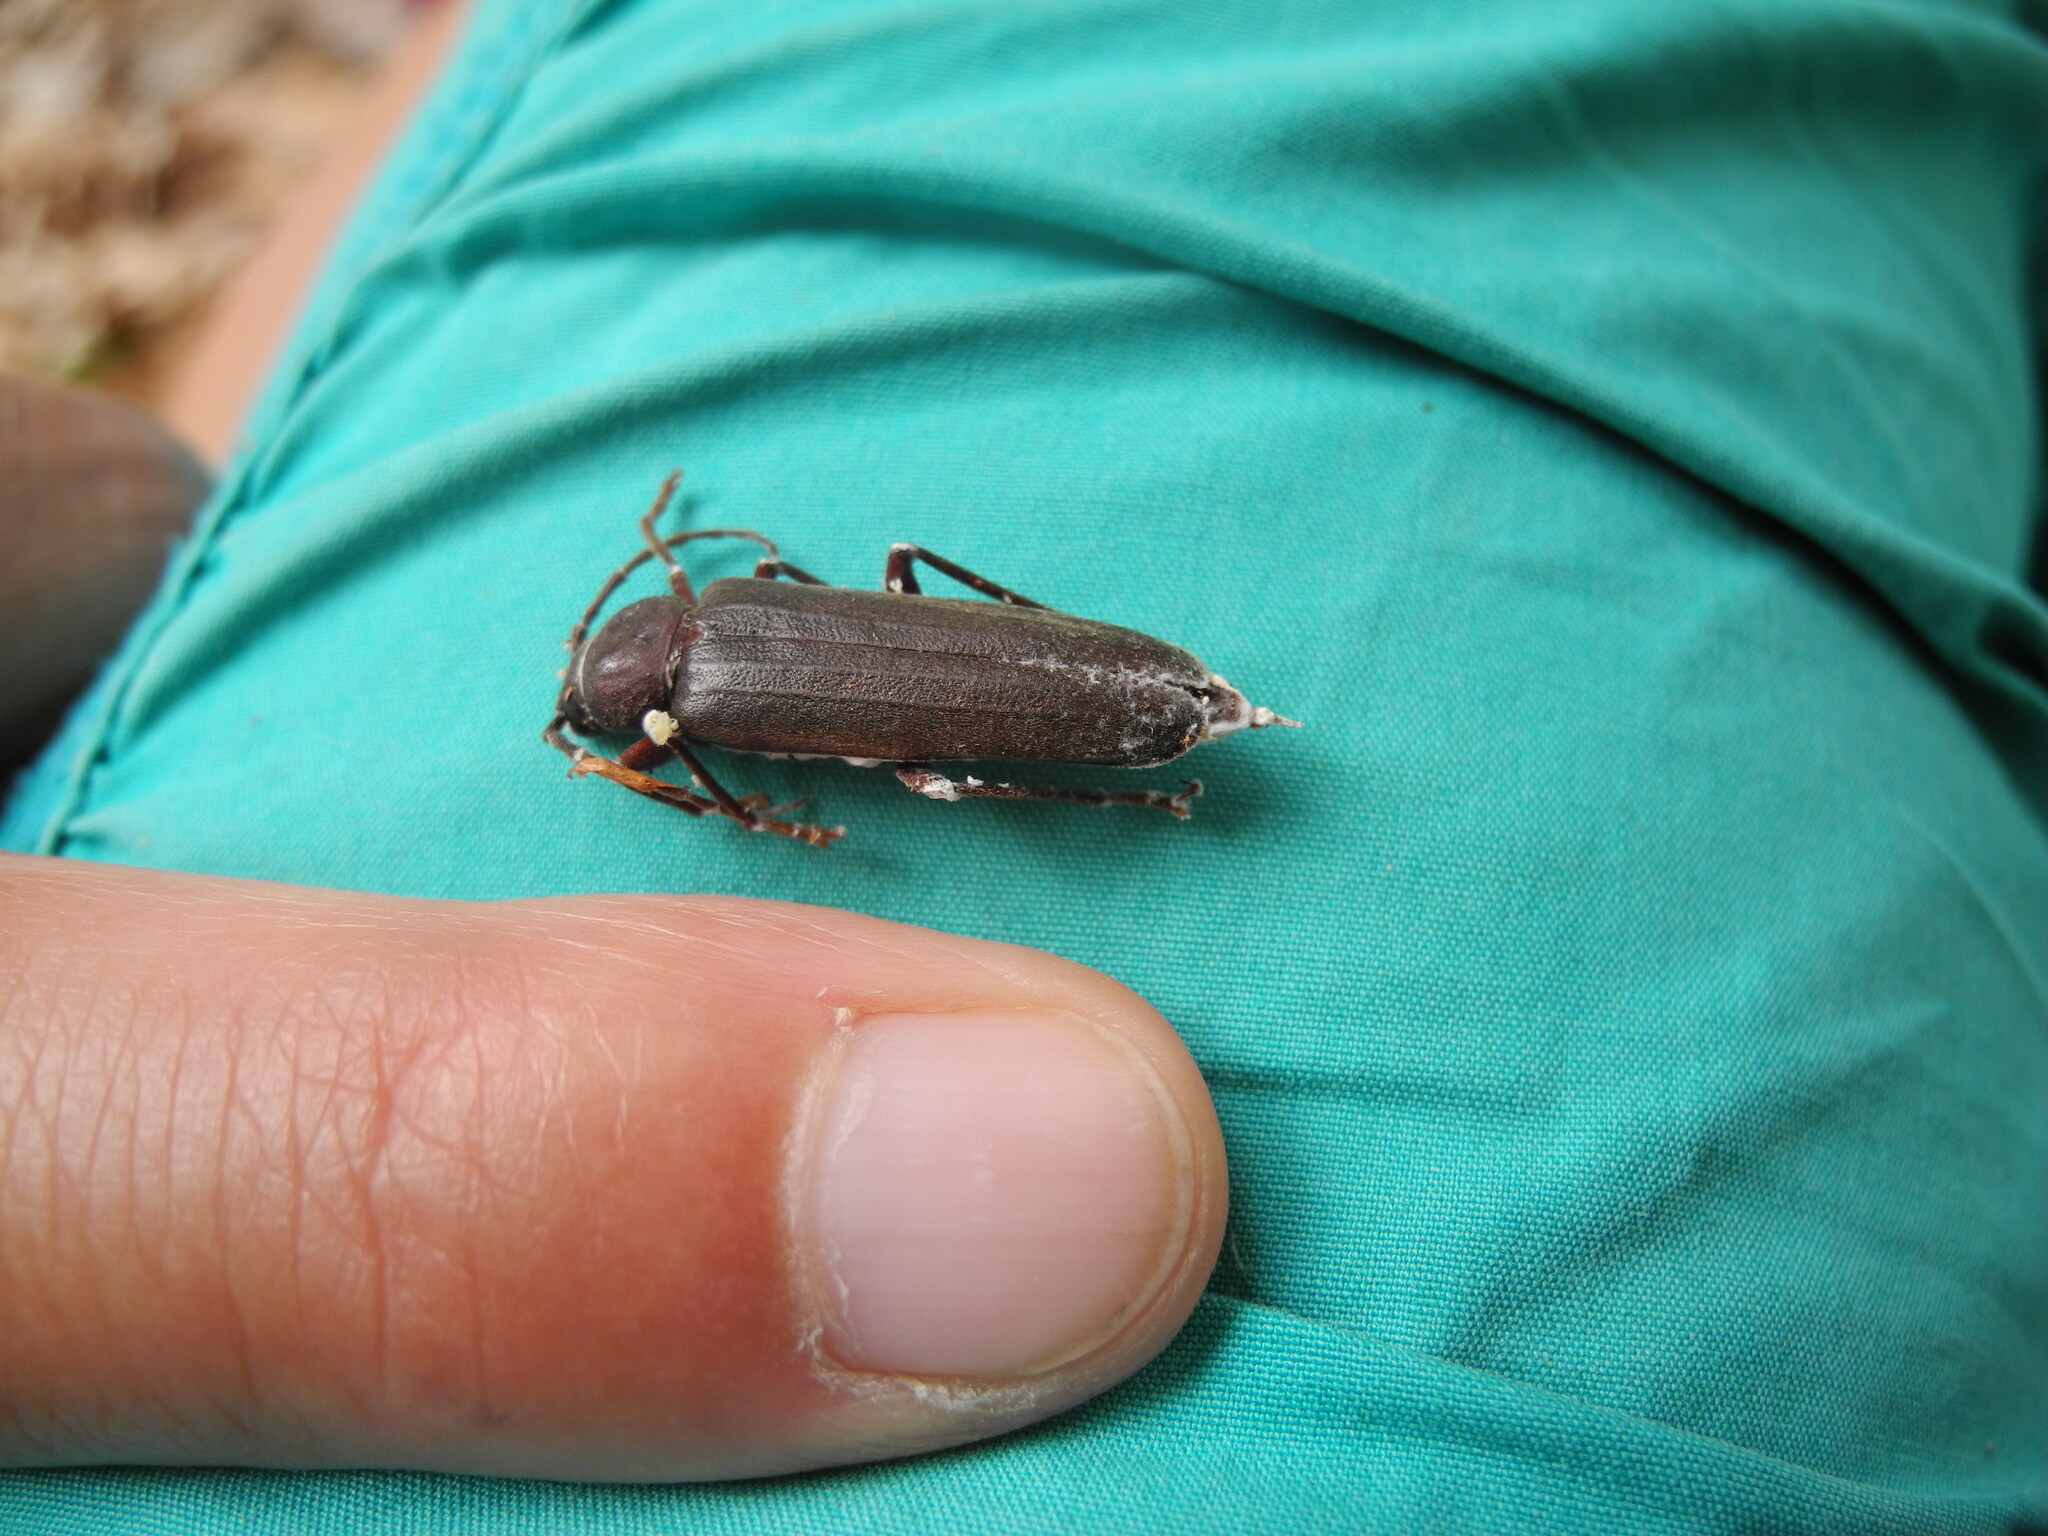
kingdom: Animalia
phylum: Arthropoda
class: Insecta
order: Coleoptera
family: Cerambycidae
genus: Arhopalus
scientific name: Arhopalus rusticus
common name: Rust pine borer
